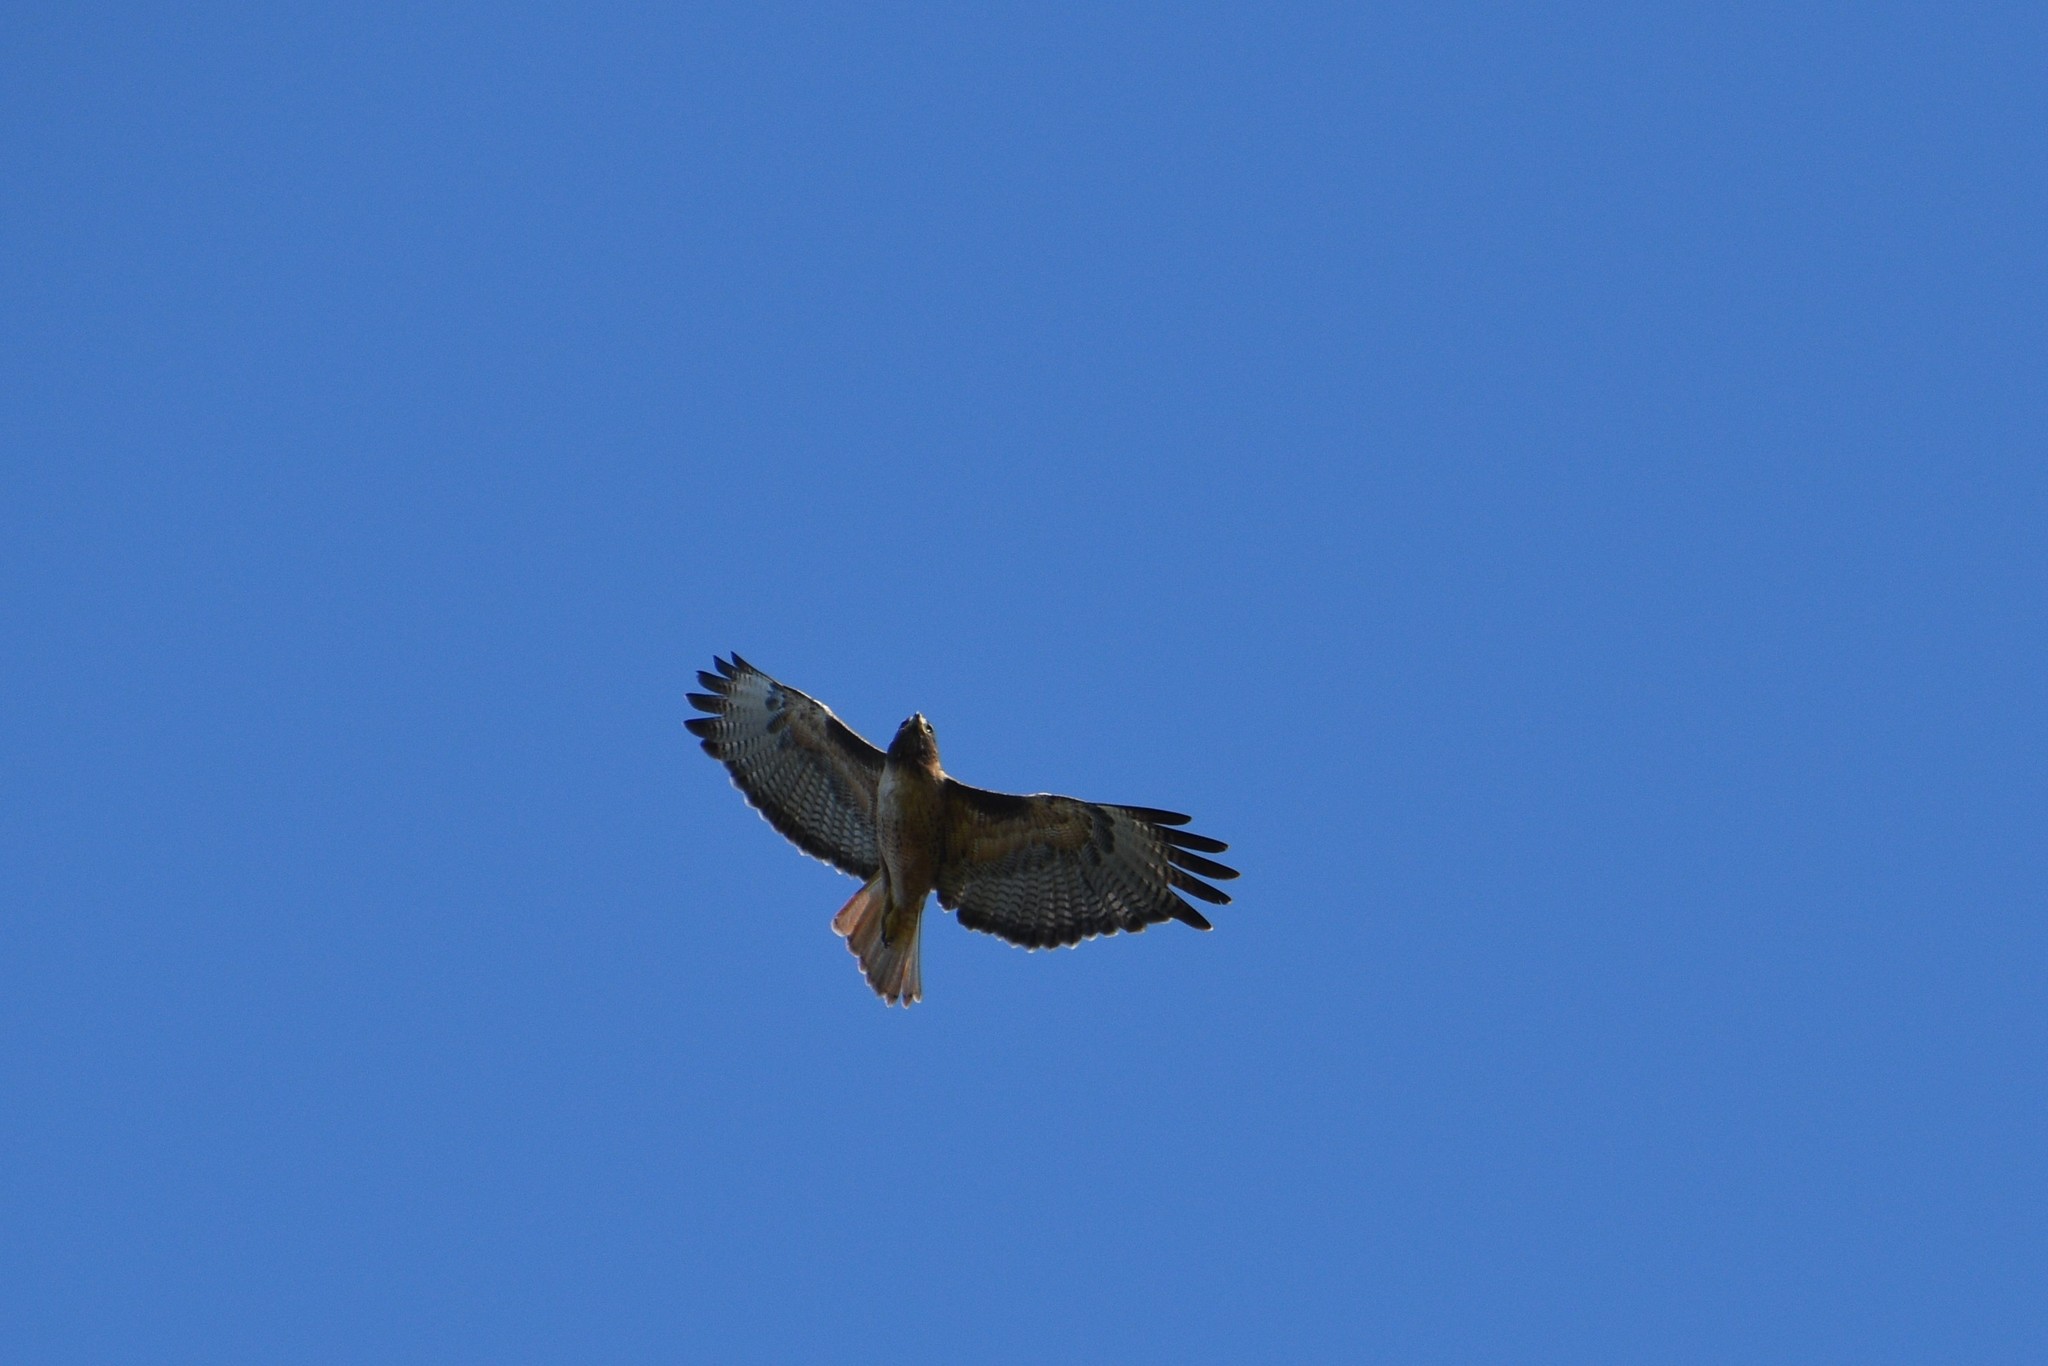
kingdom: Animalia
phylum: Chordata
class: Aves
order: Accipitriformes
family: Accipitridae
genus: Buteo
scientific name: Buteo jamaicensis
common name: Red-tailed hawk
